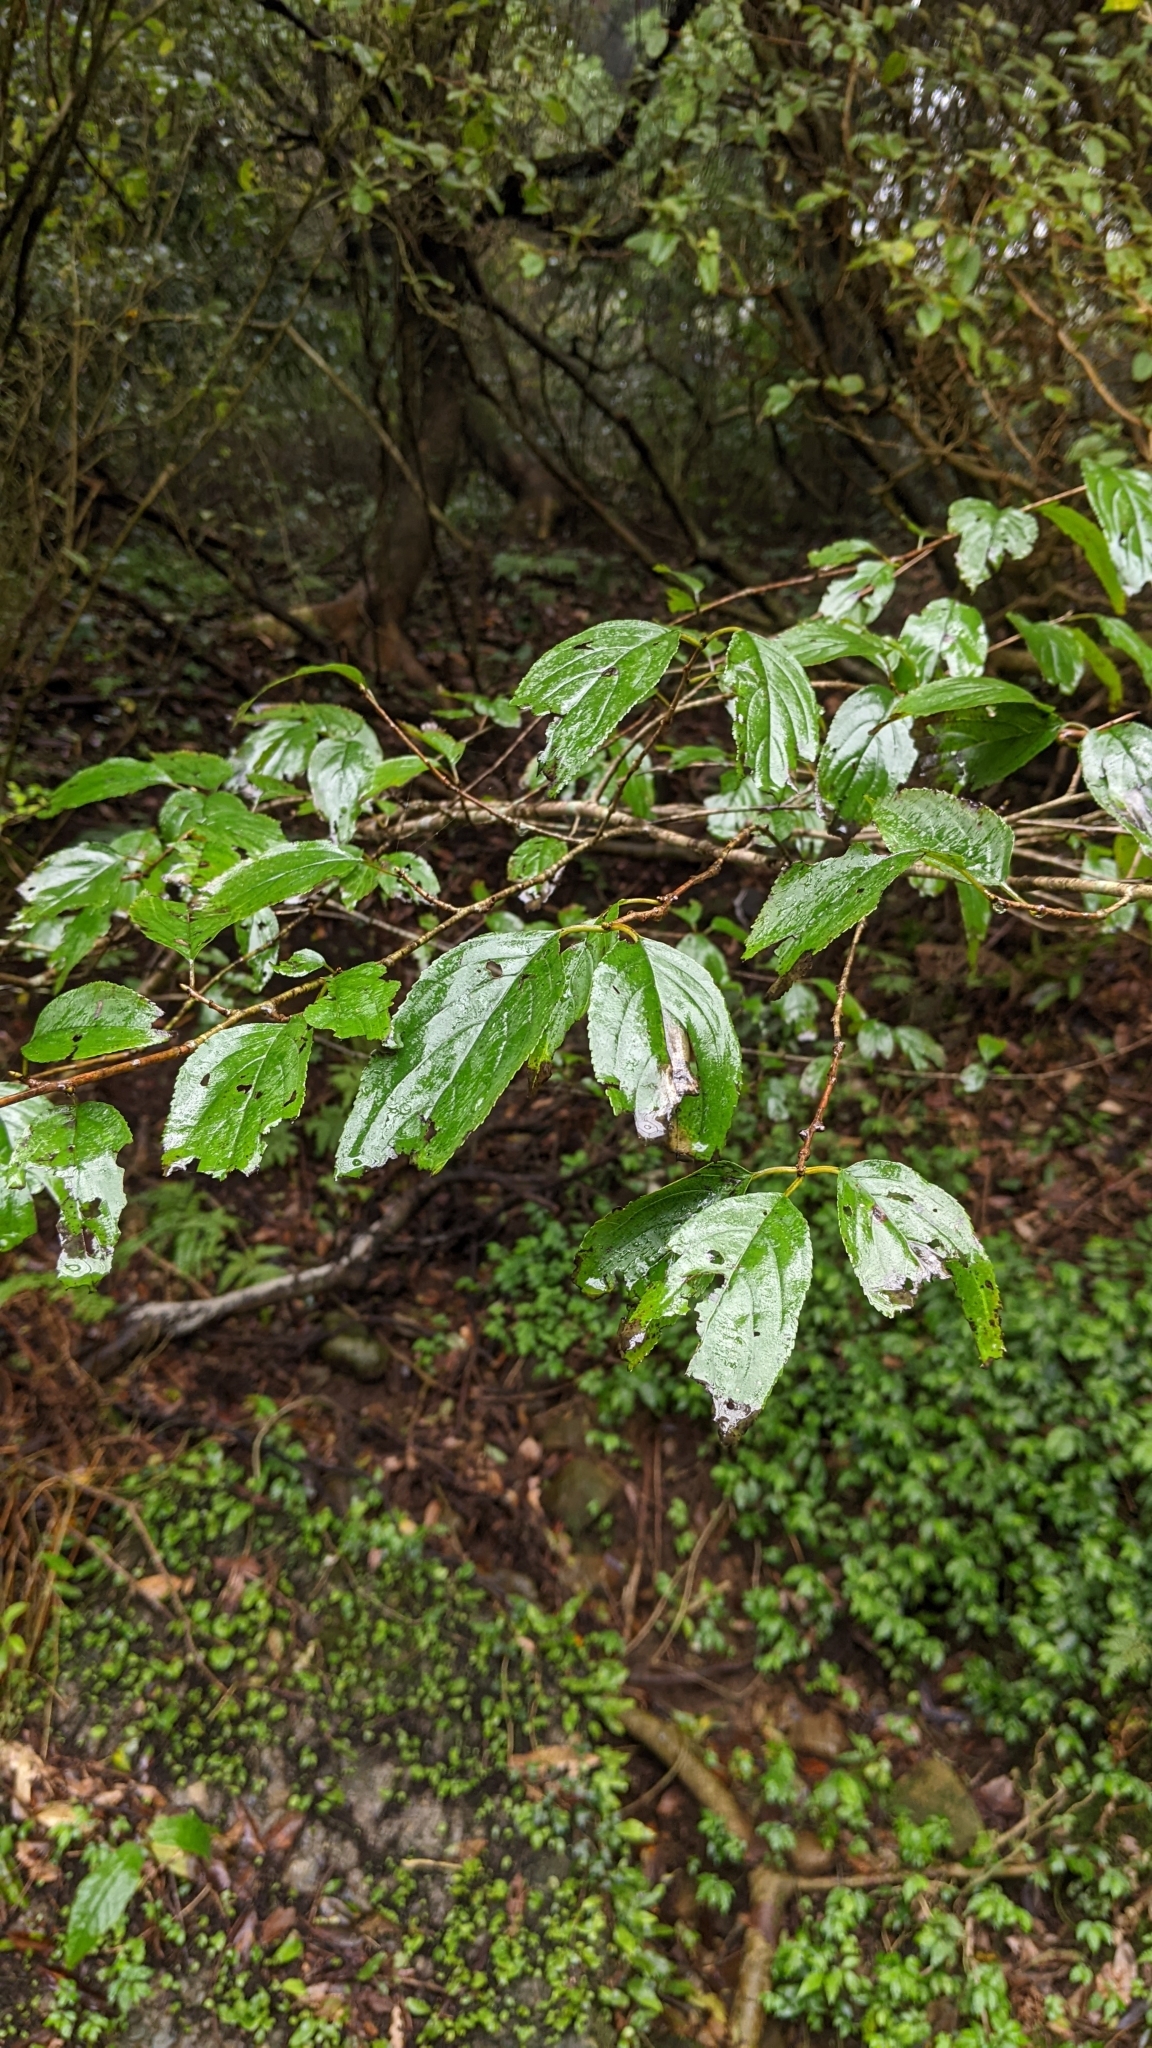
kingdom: Plantae
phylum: Tracheophyta
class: Magnoliopsida
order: Rosales
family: Rhamnaceae
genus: Rhamnus
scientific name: Rhamnus nakaharae
